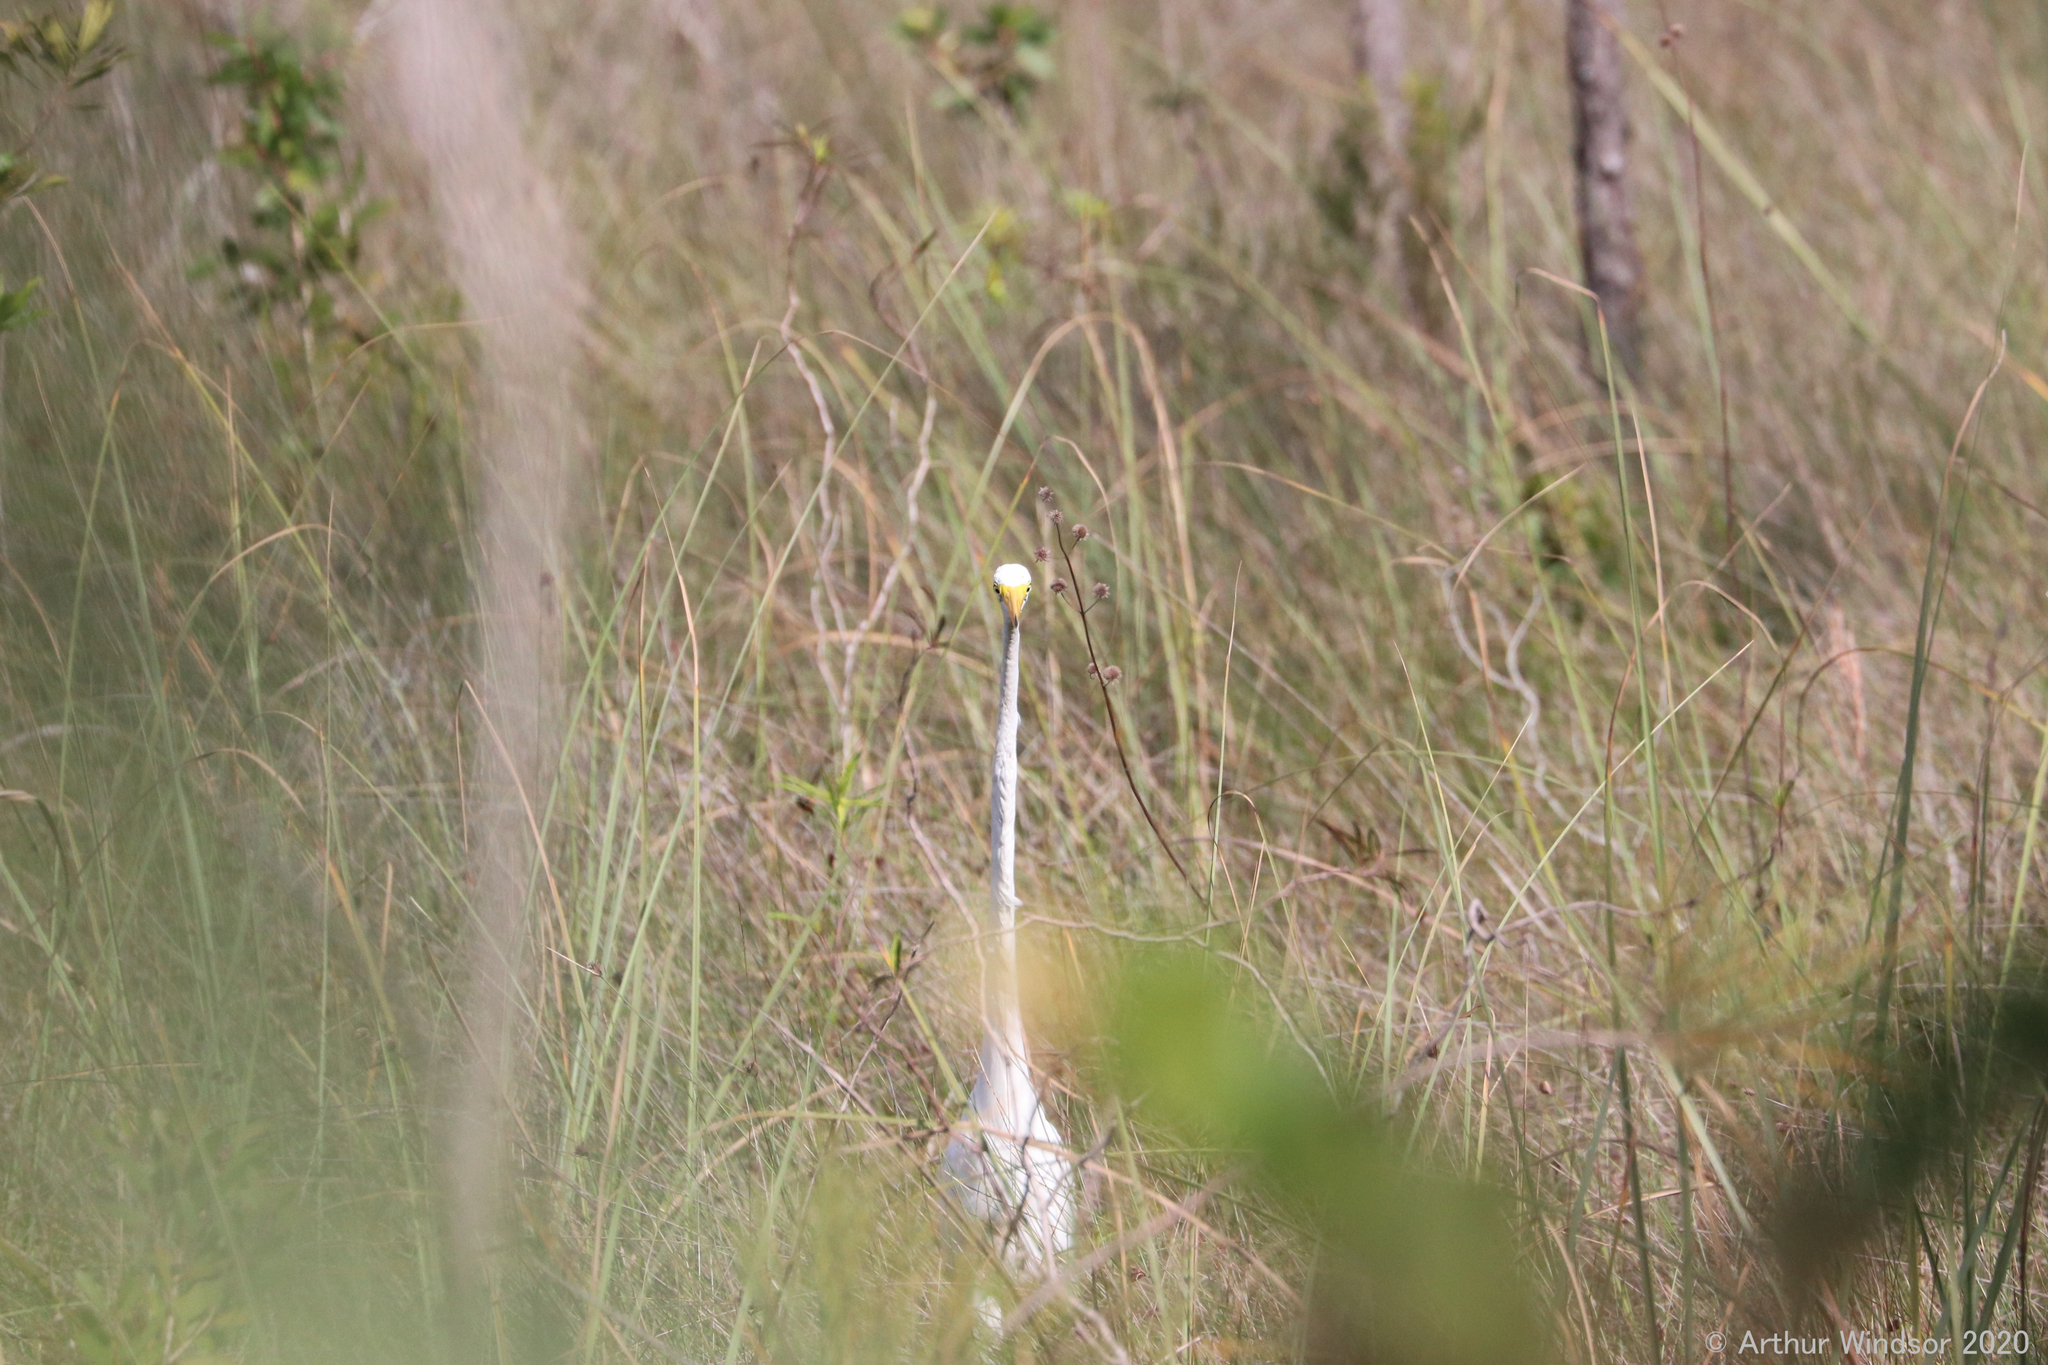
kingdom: Animalia
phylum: Chordata
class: Aves
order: Pelecaniformes
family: Ardeidae
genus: Ardea
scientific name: Ardea alba
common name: Great egret
